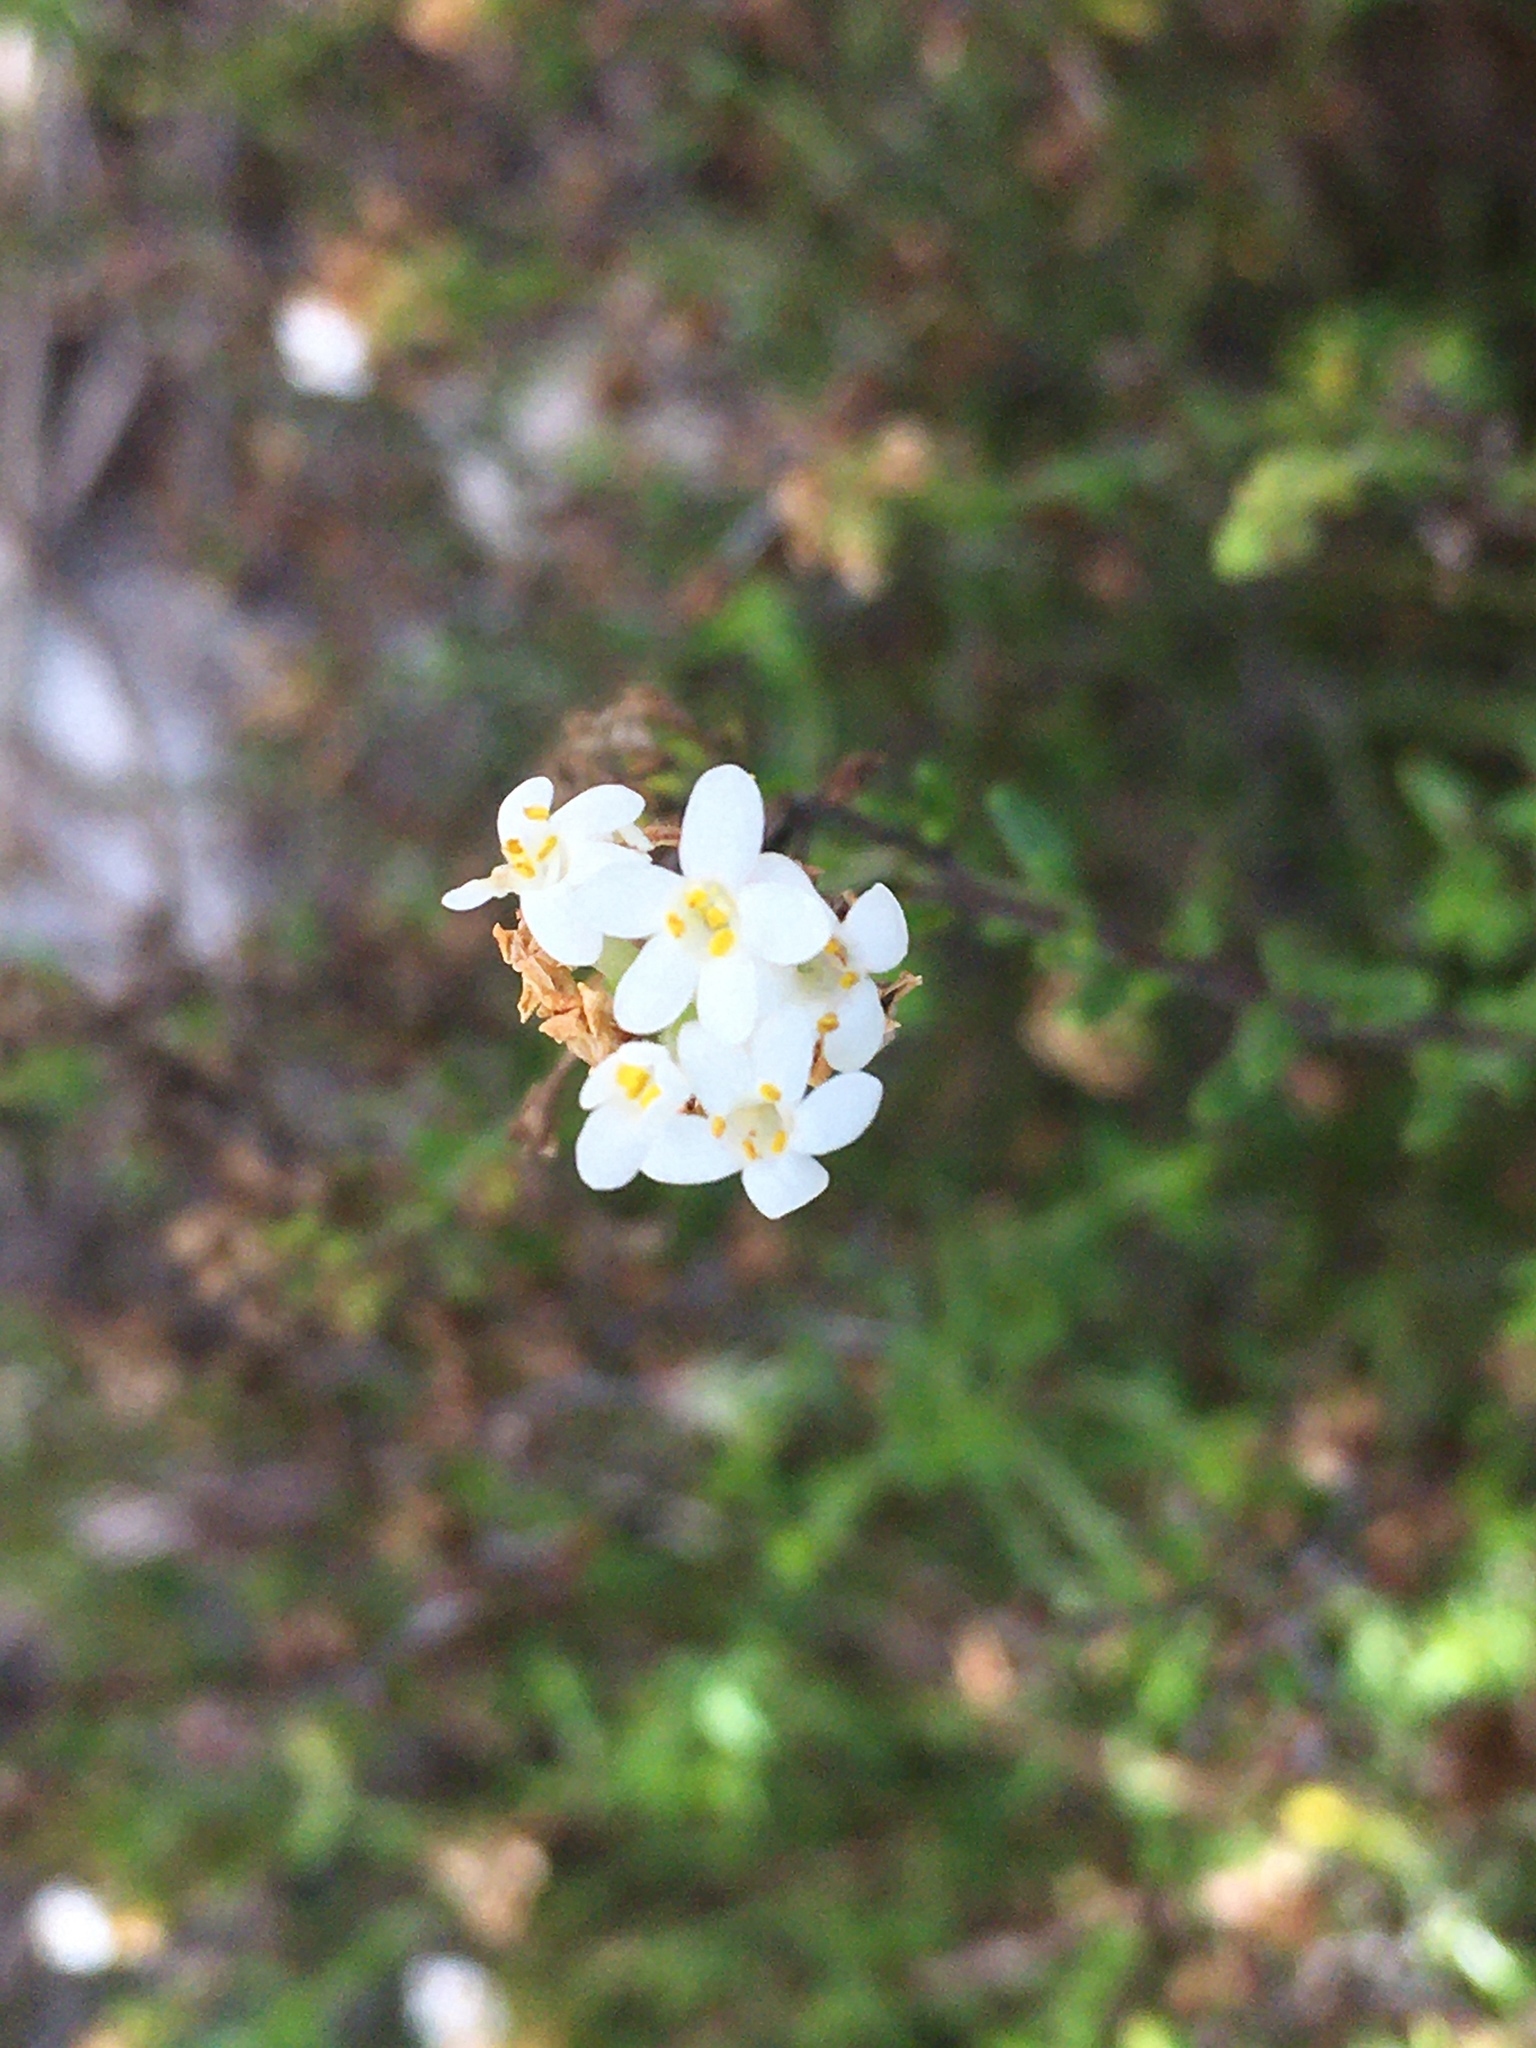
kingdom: Plantae
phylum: Tracheophyta
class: Magnoliopsida
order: Lamiales
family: Scrophulariaceae
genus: Selago
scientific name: Selago levynsiae
